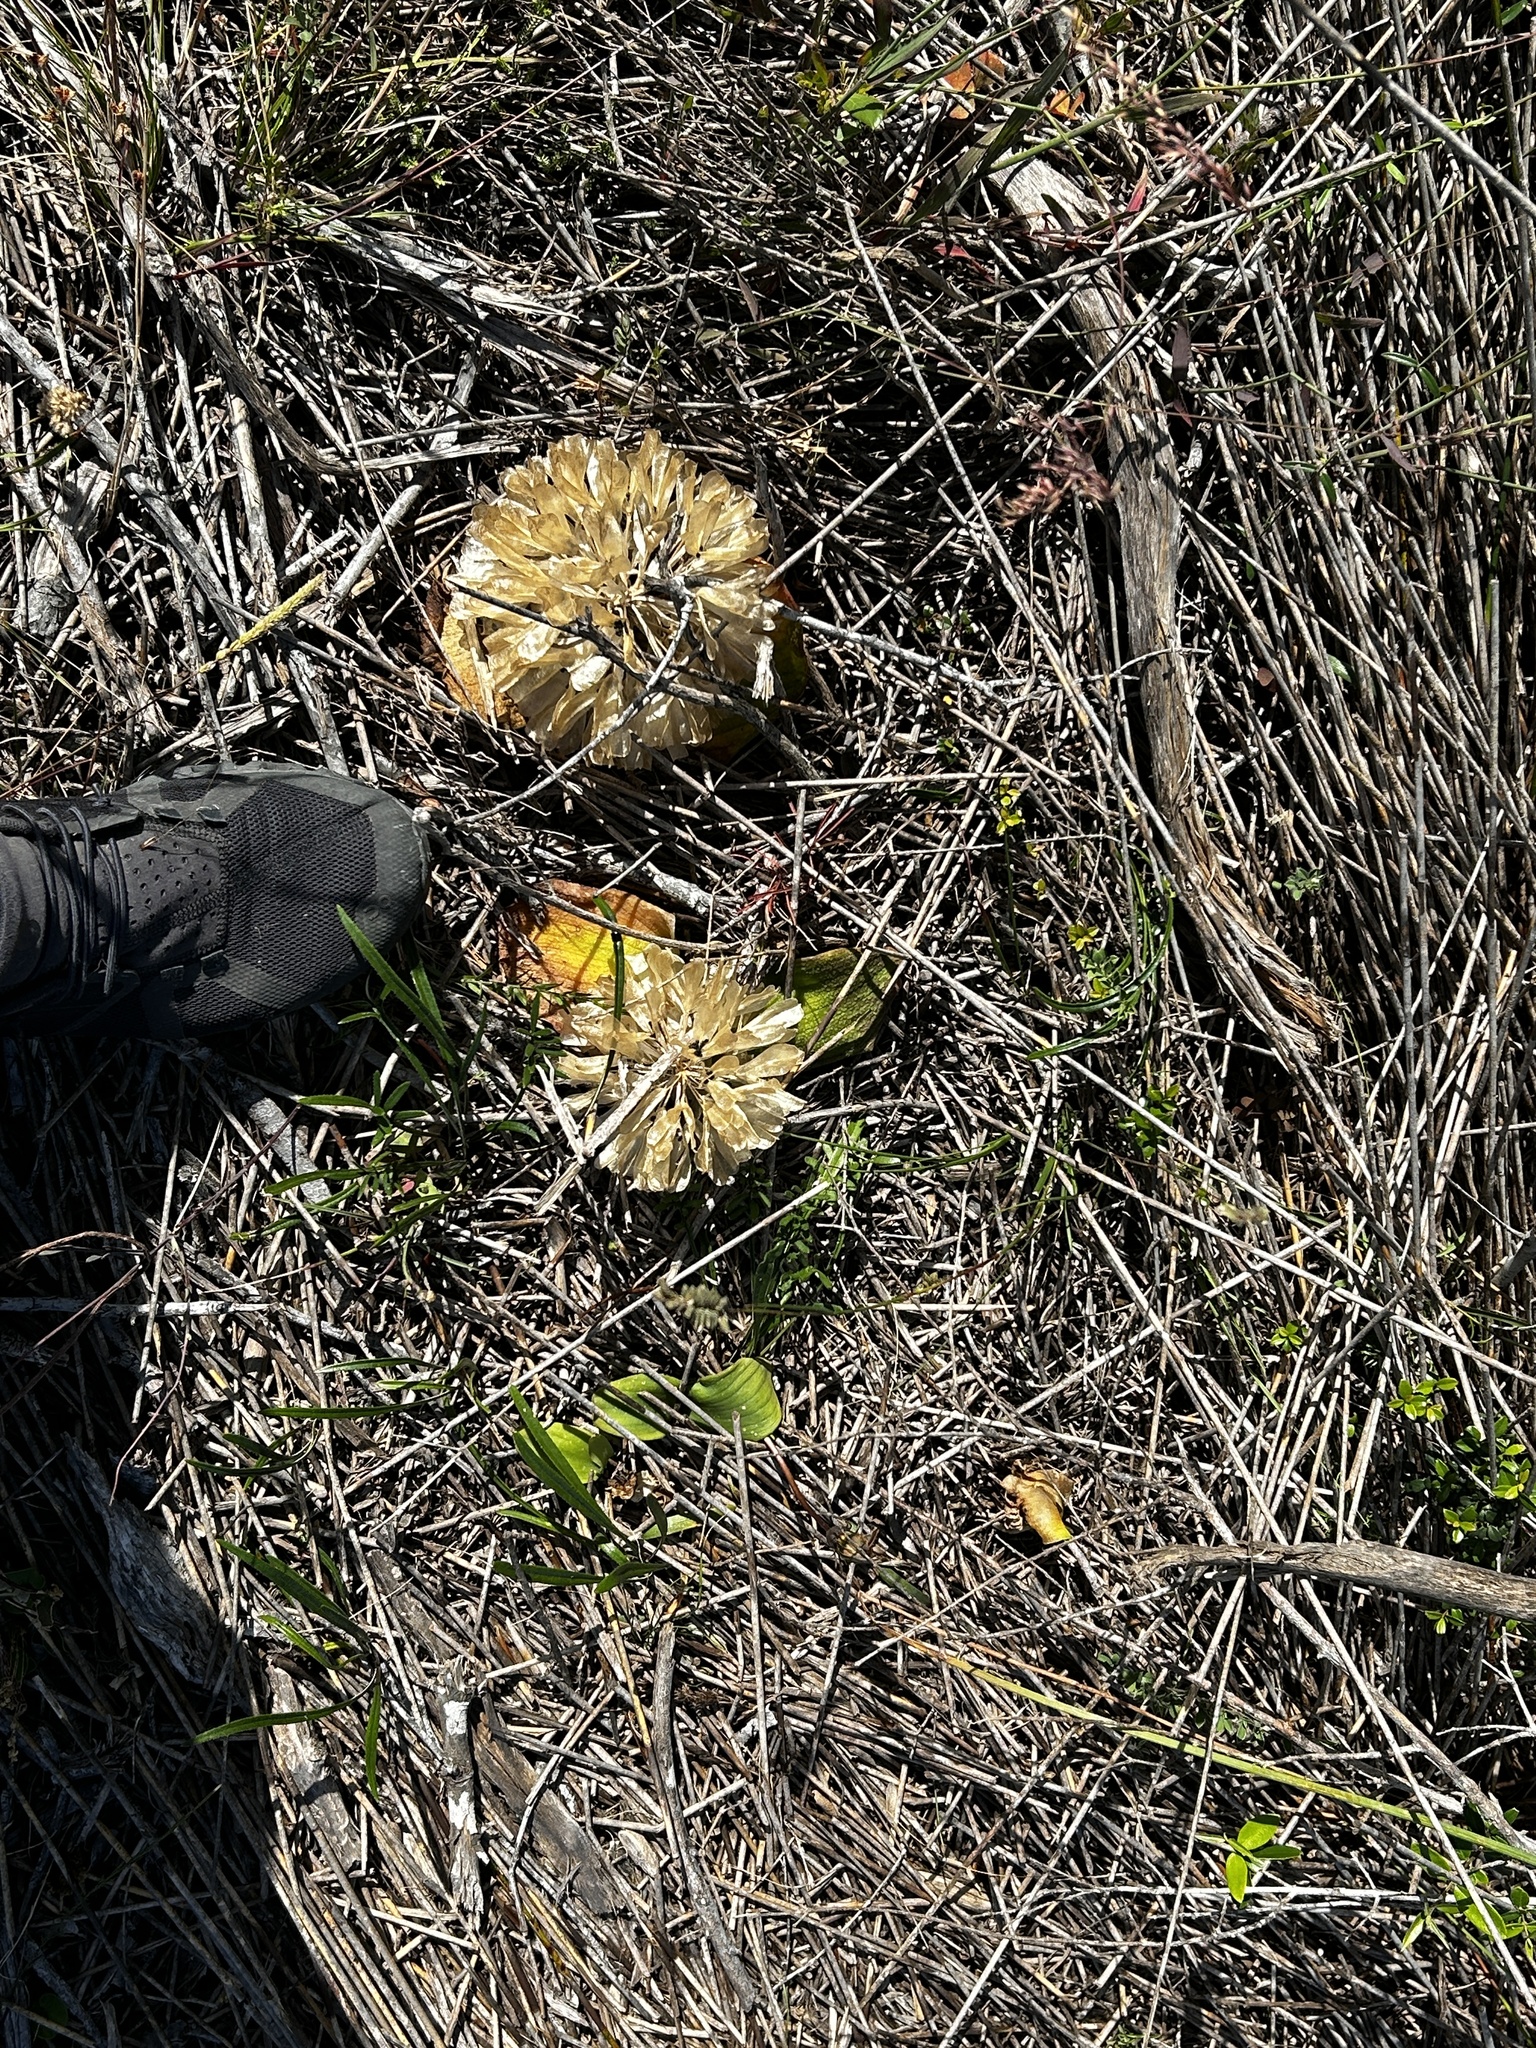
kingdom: Plantae
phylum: Tracheophyta
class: Liliopsida
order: Asparagales
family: Asparagaceae
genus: Massonia
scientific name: Massonia longipes
